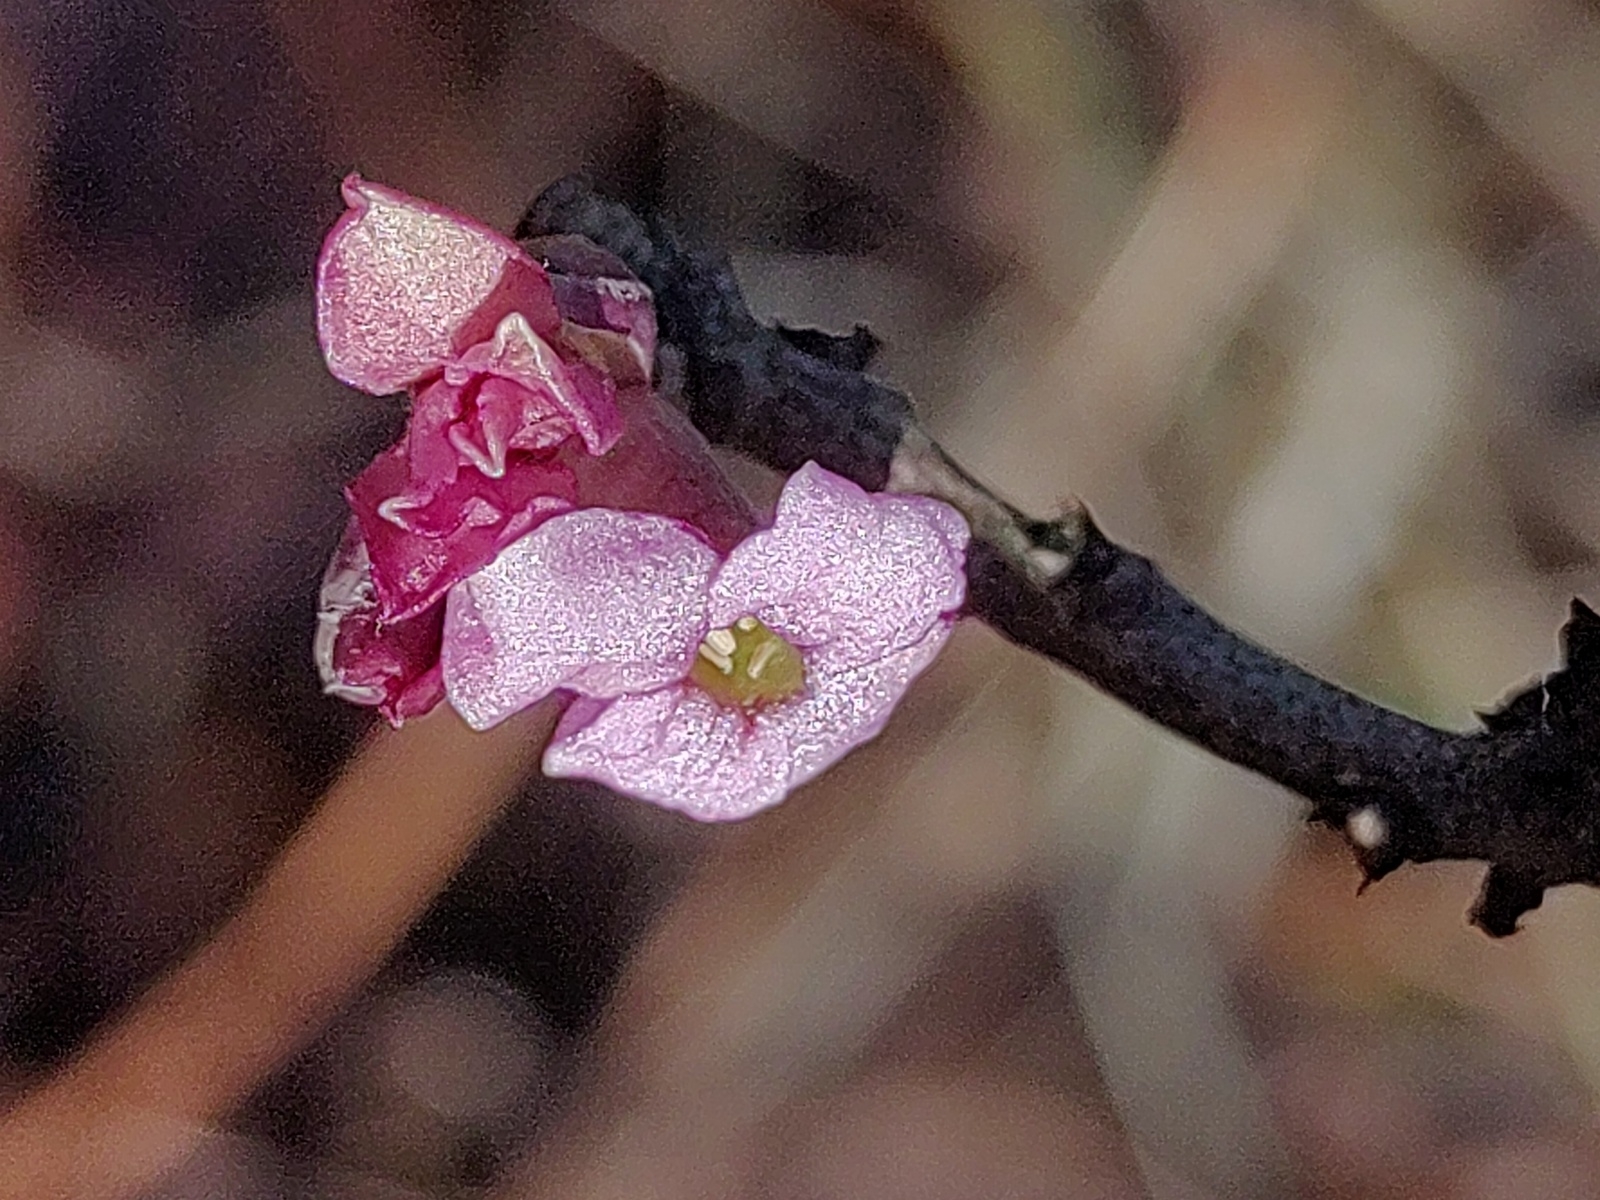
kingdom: Plantae
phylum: Tracheophyta
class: Magnoliopsida
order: Malvales
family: Thymelaeaceae
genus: Daphne
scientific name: Daphne mezereum
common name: Mezereon
